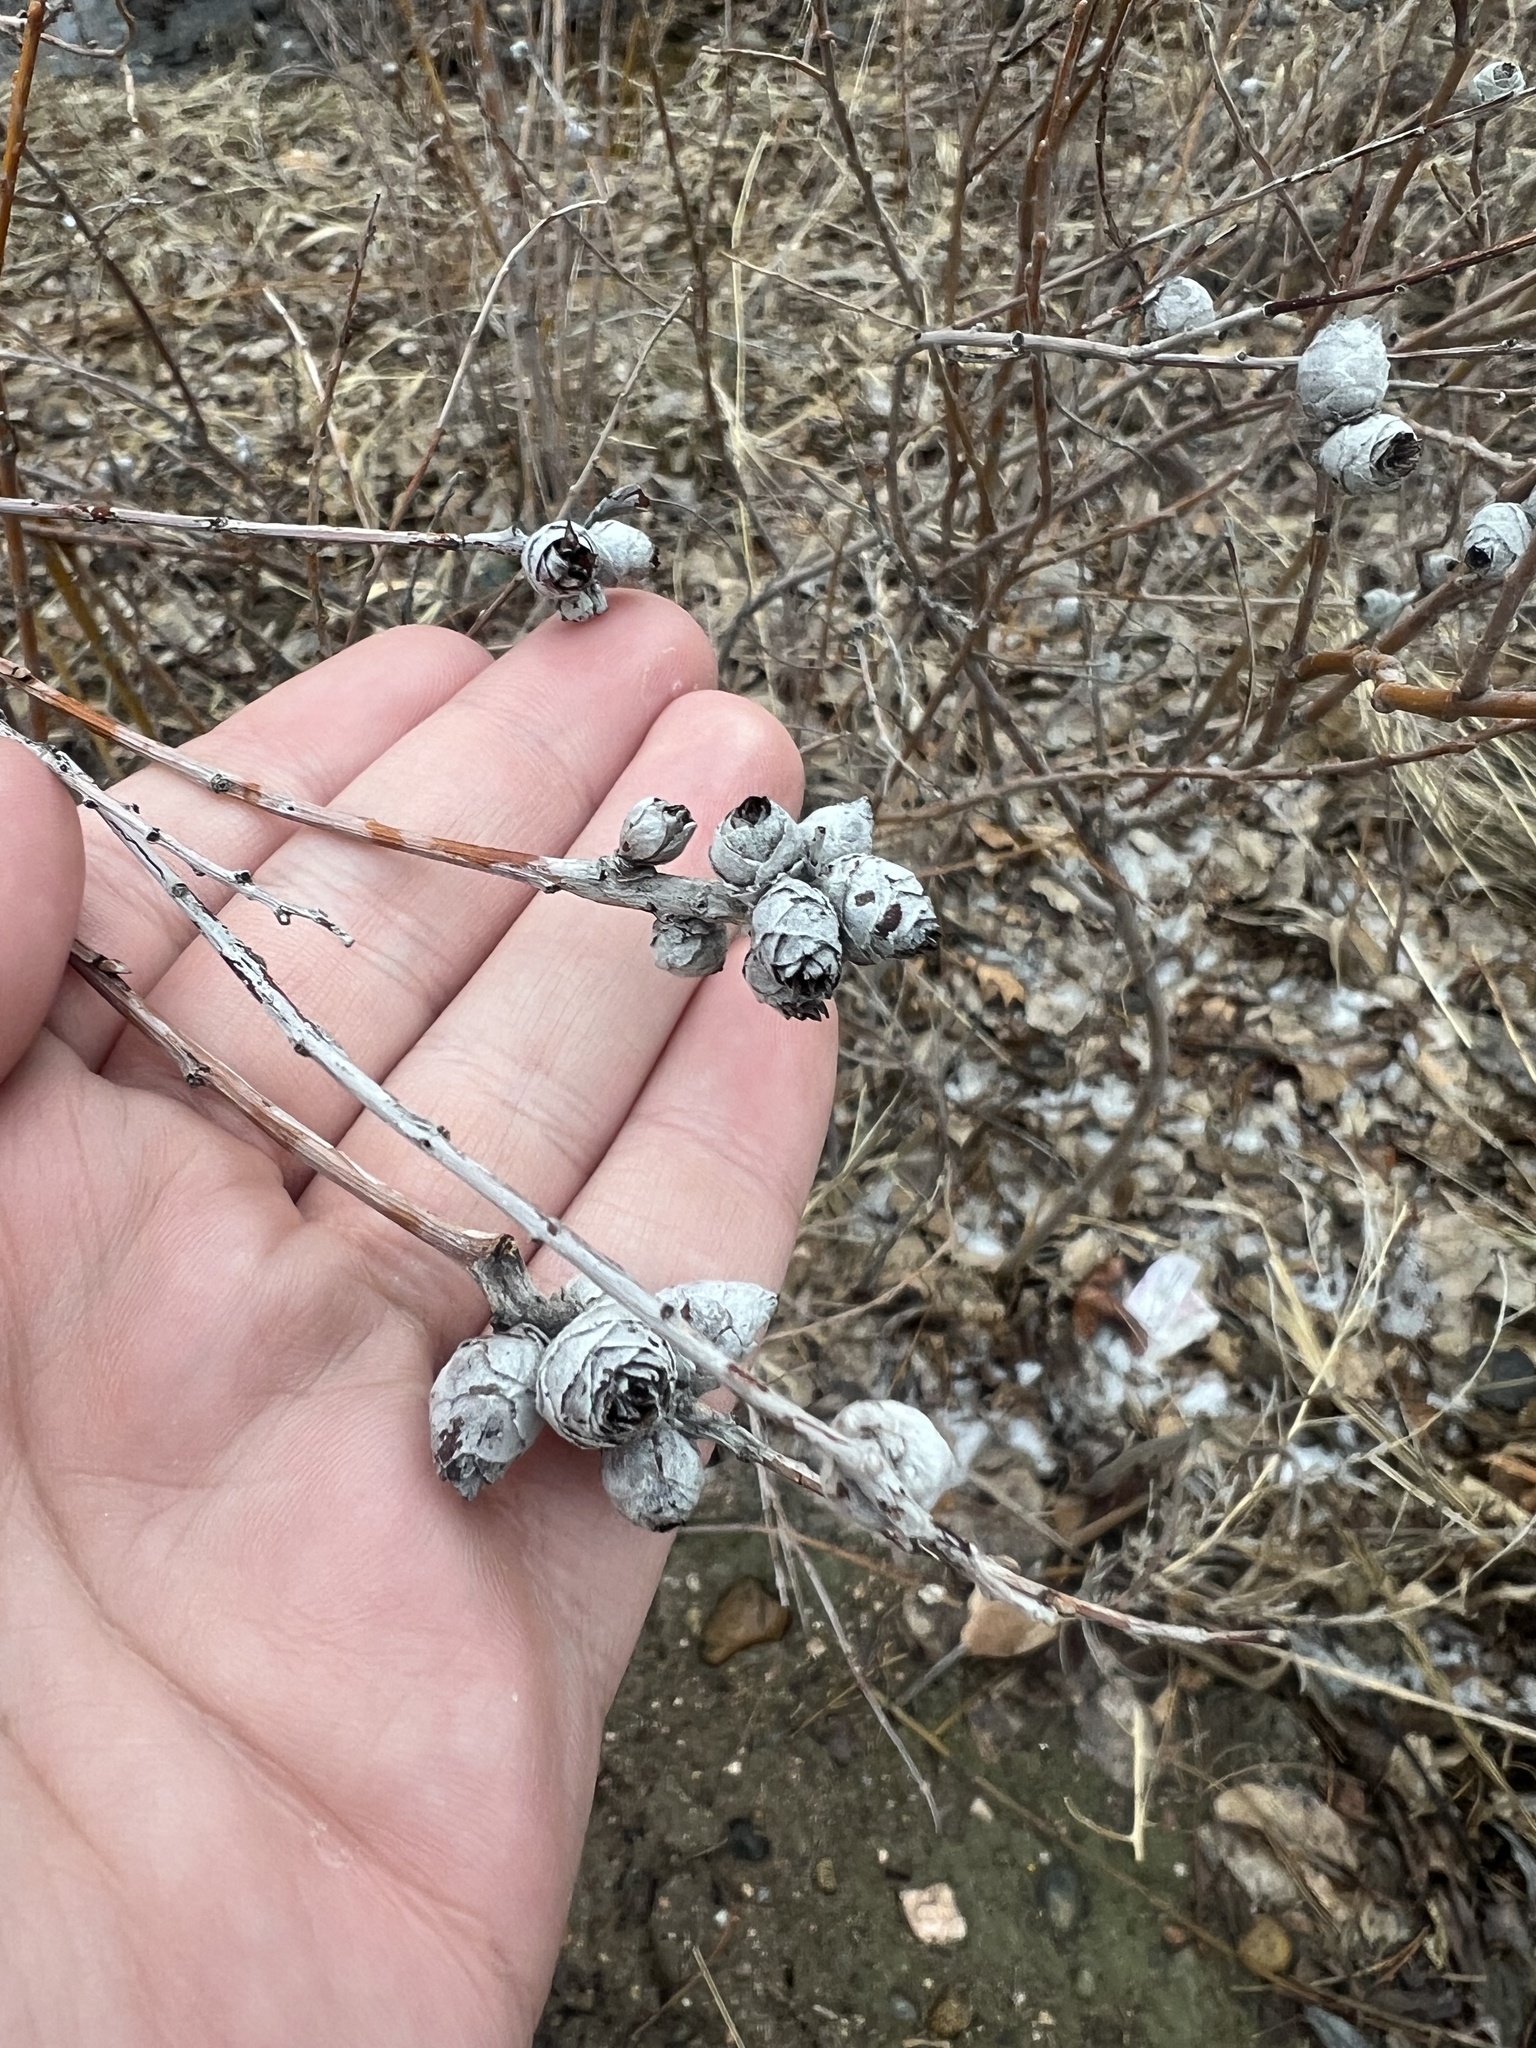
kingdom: Animalia
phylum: Arthropoda
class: Insecta
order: Diptera
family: Cecidomyiidae
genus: Rabdophaga
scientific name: Rabdophaga strobiloides
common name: Willow pinecone gall midge
